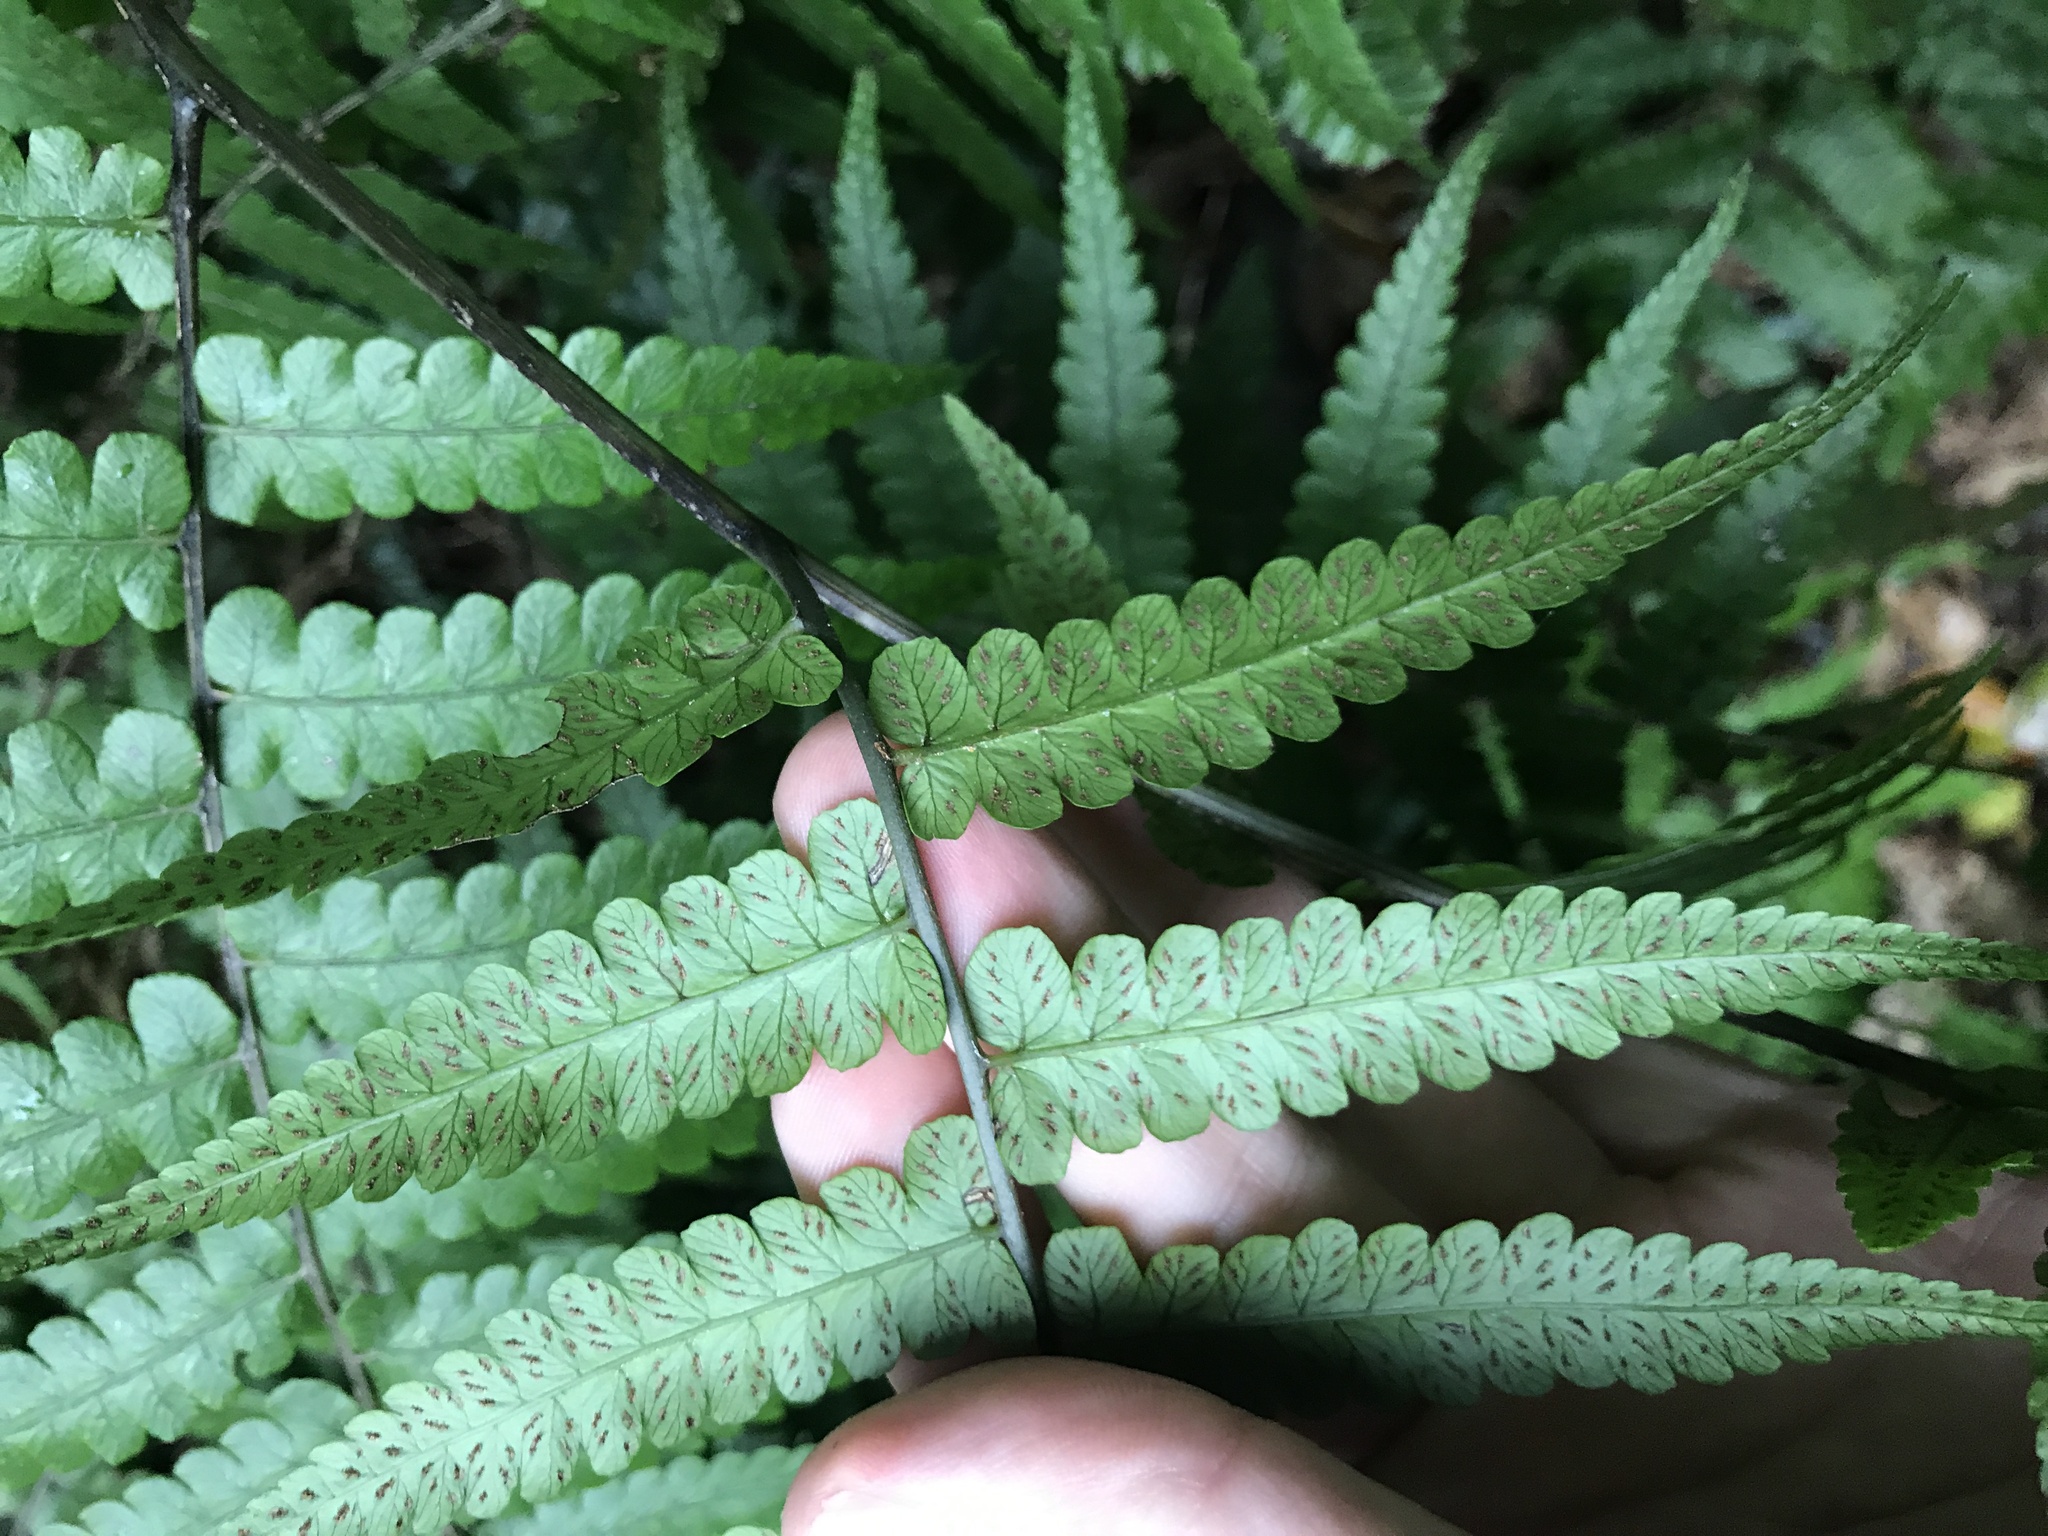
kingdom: Plantae
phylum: Tracheophyta
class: Polypodiopsida
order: Polypodiales
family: Athyriaceae
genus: Diplazium
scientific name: Diplazium virescens
